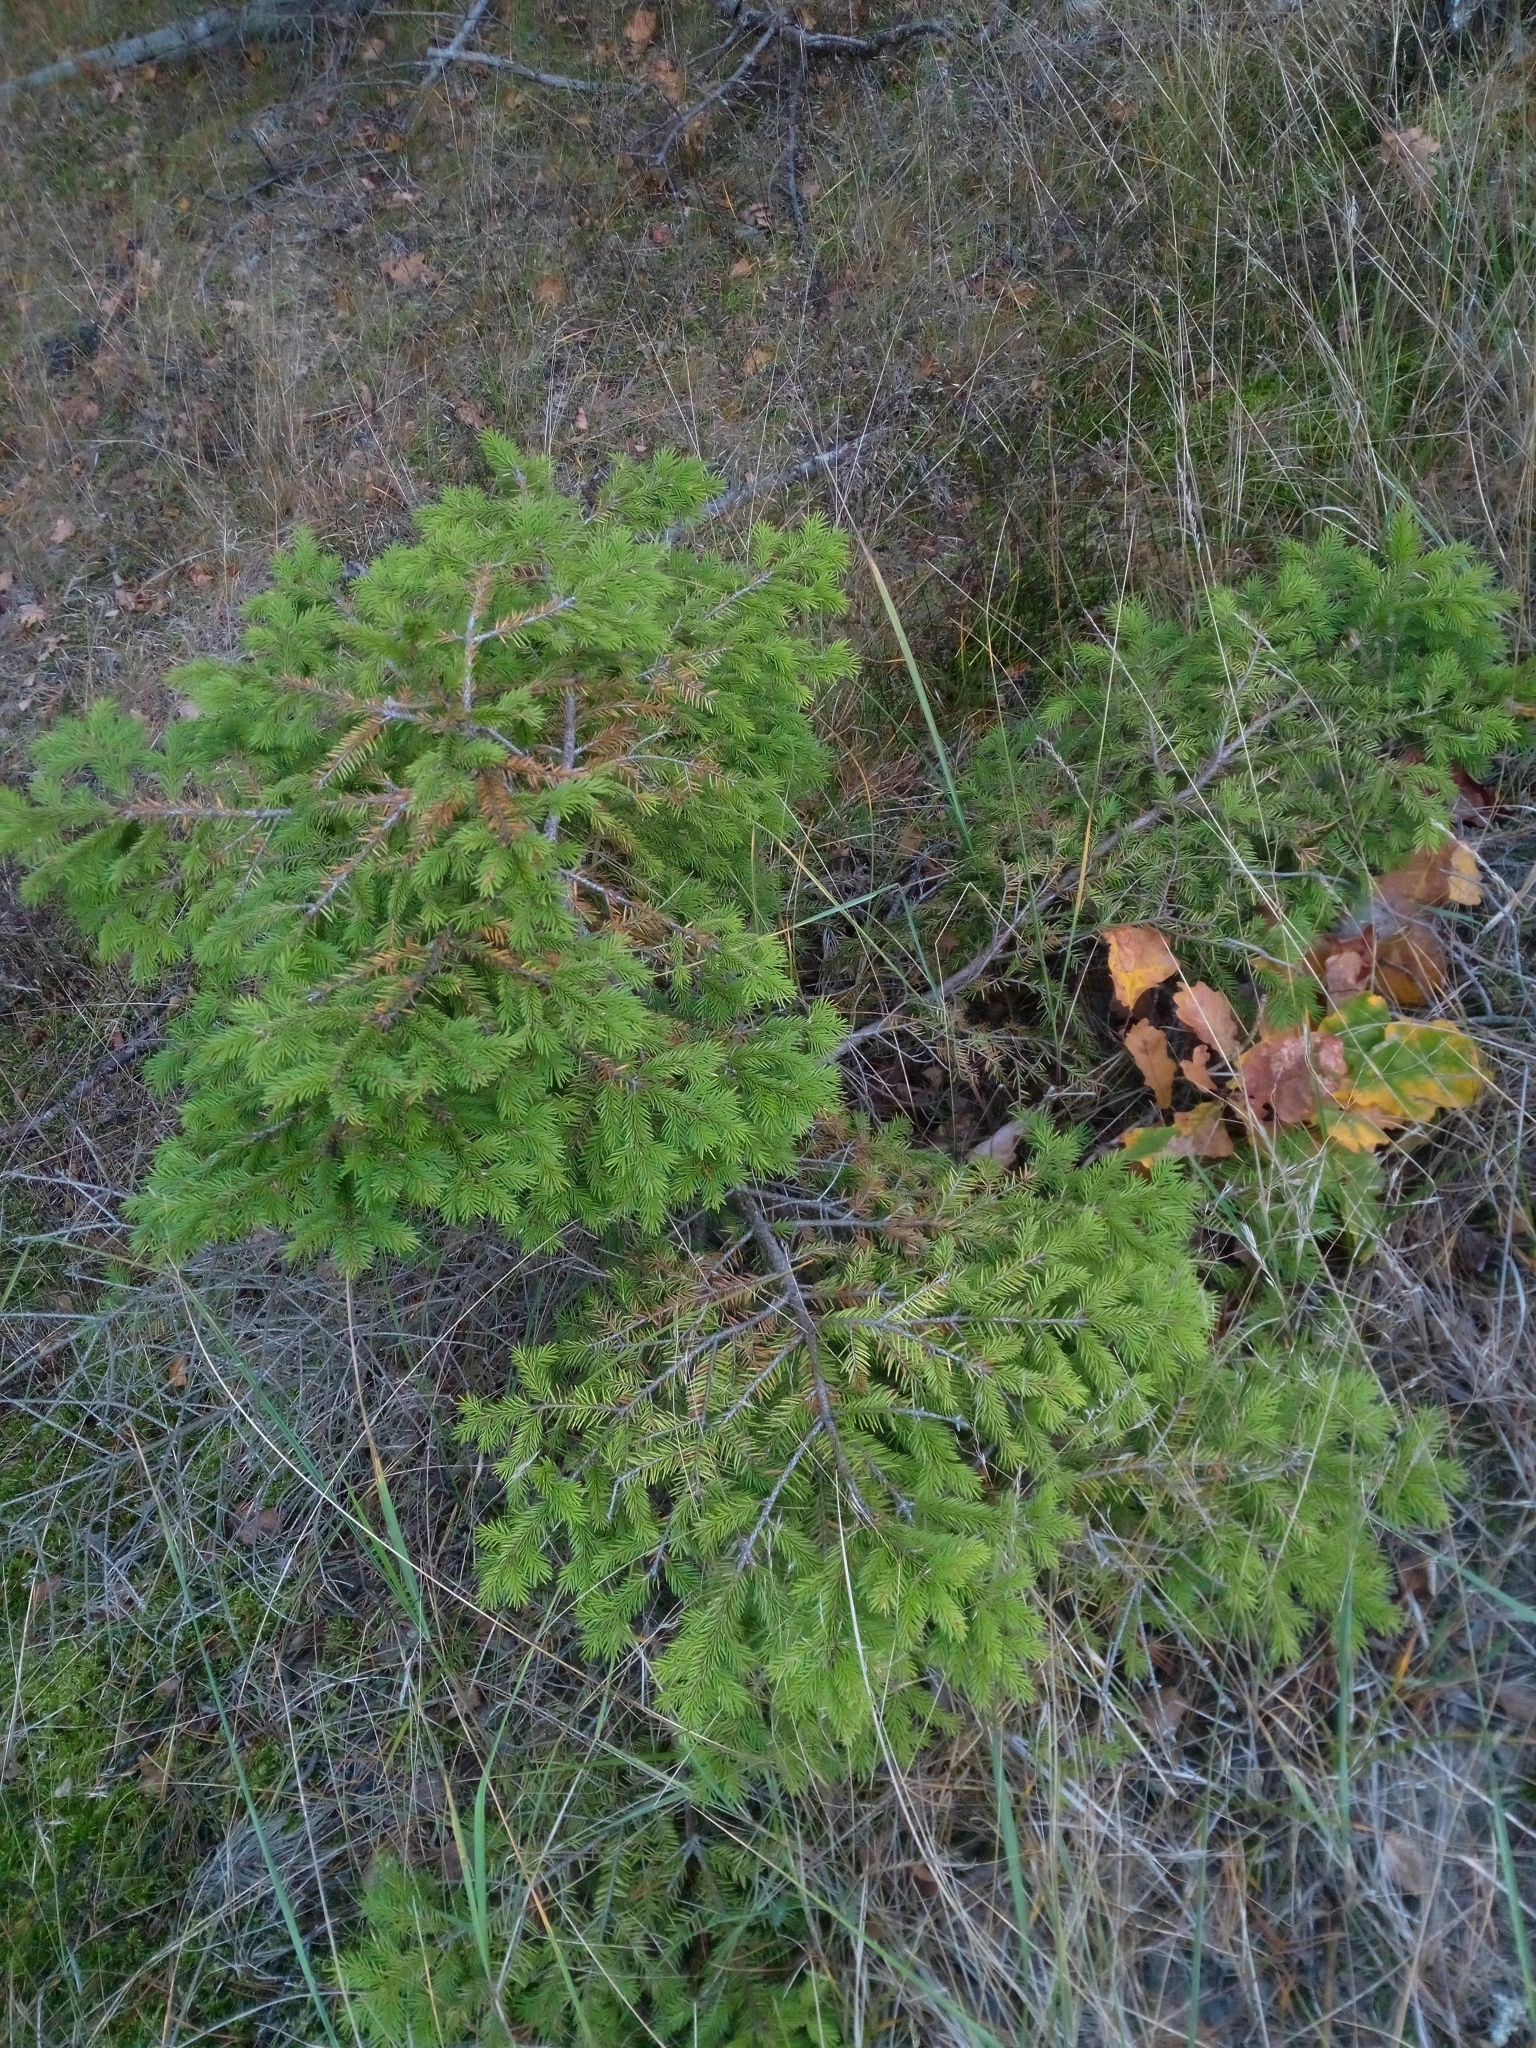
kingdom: Plantae
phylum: Tracheophyta
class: Pinopsida
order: Pinales
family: Pinaceae
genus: Picea
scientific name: Picea abies
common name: Norway spruce
